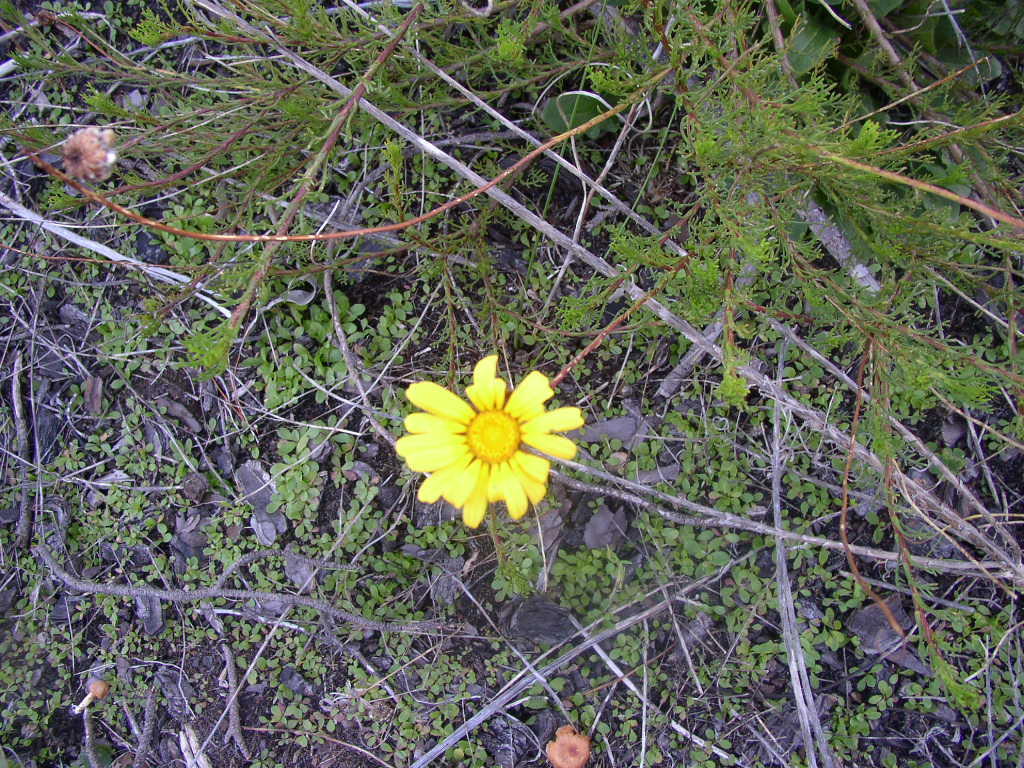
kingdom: Plantae
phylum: Tracheophyta
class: Magnoliopsida
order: Asterales
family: Asteraceae
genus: Ursinia
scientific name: Ursinia paleacea
